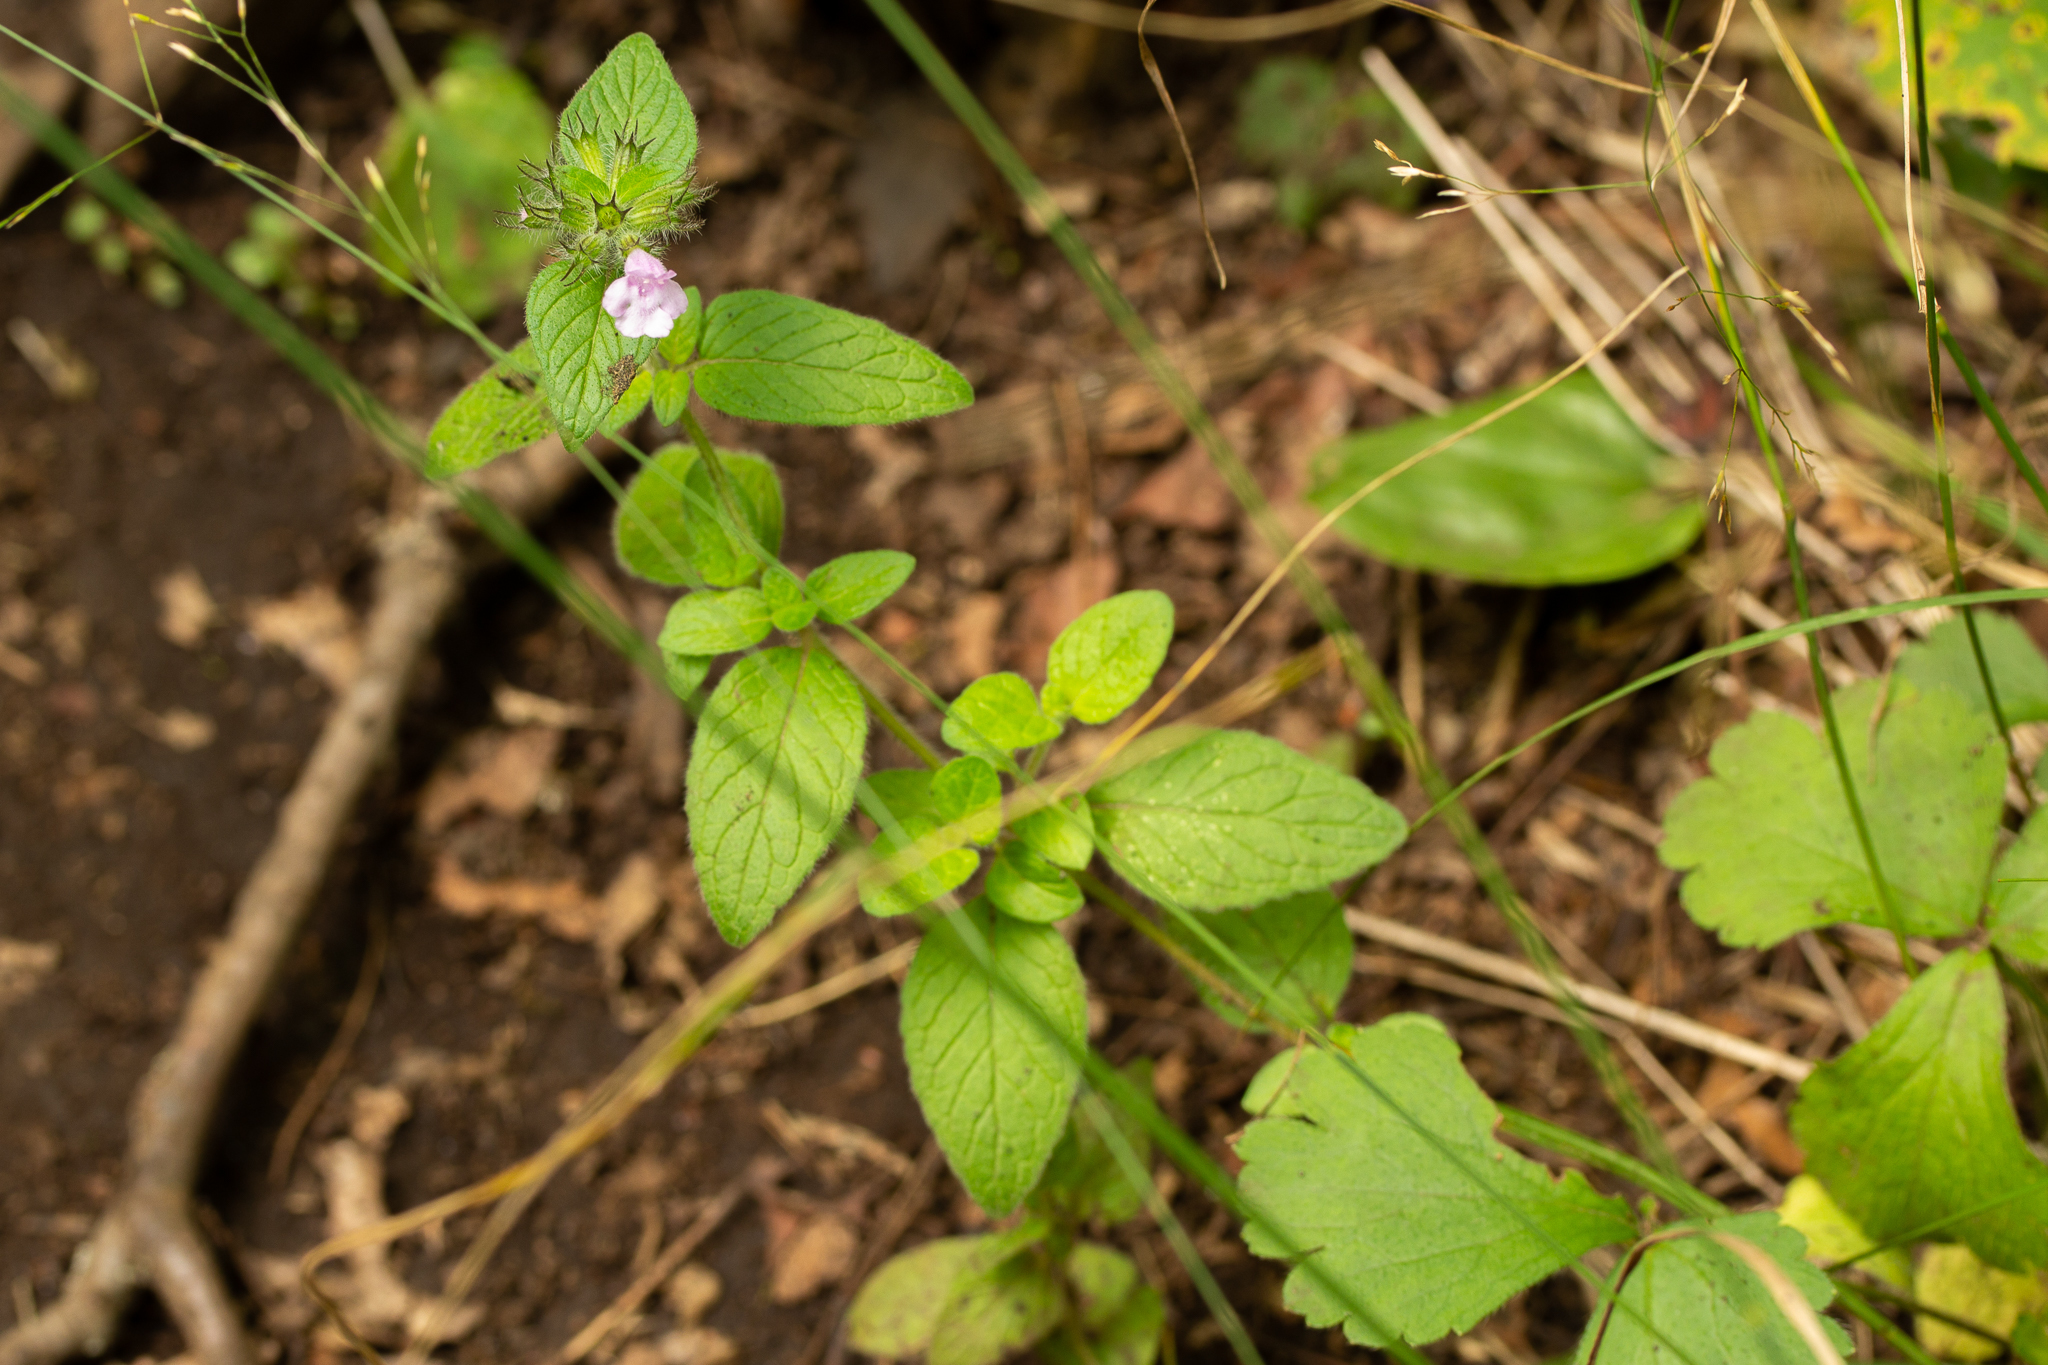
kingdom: Plantae
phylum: Tracheophyta
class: Magnoliopsida
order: Lamiales
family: Lamiaceae
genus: Clinopodium
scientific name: Clinopodium vulgare
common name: Wild basil
